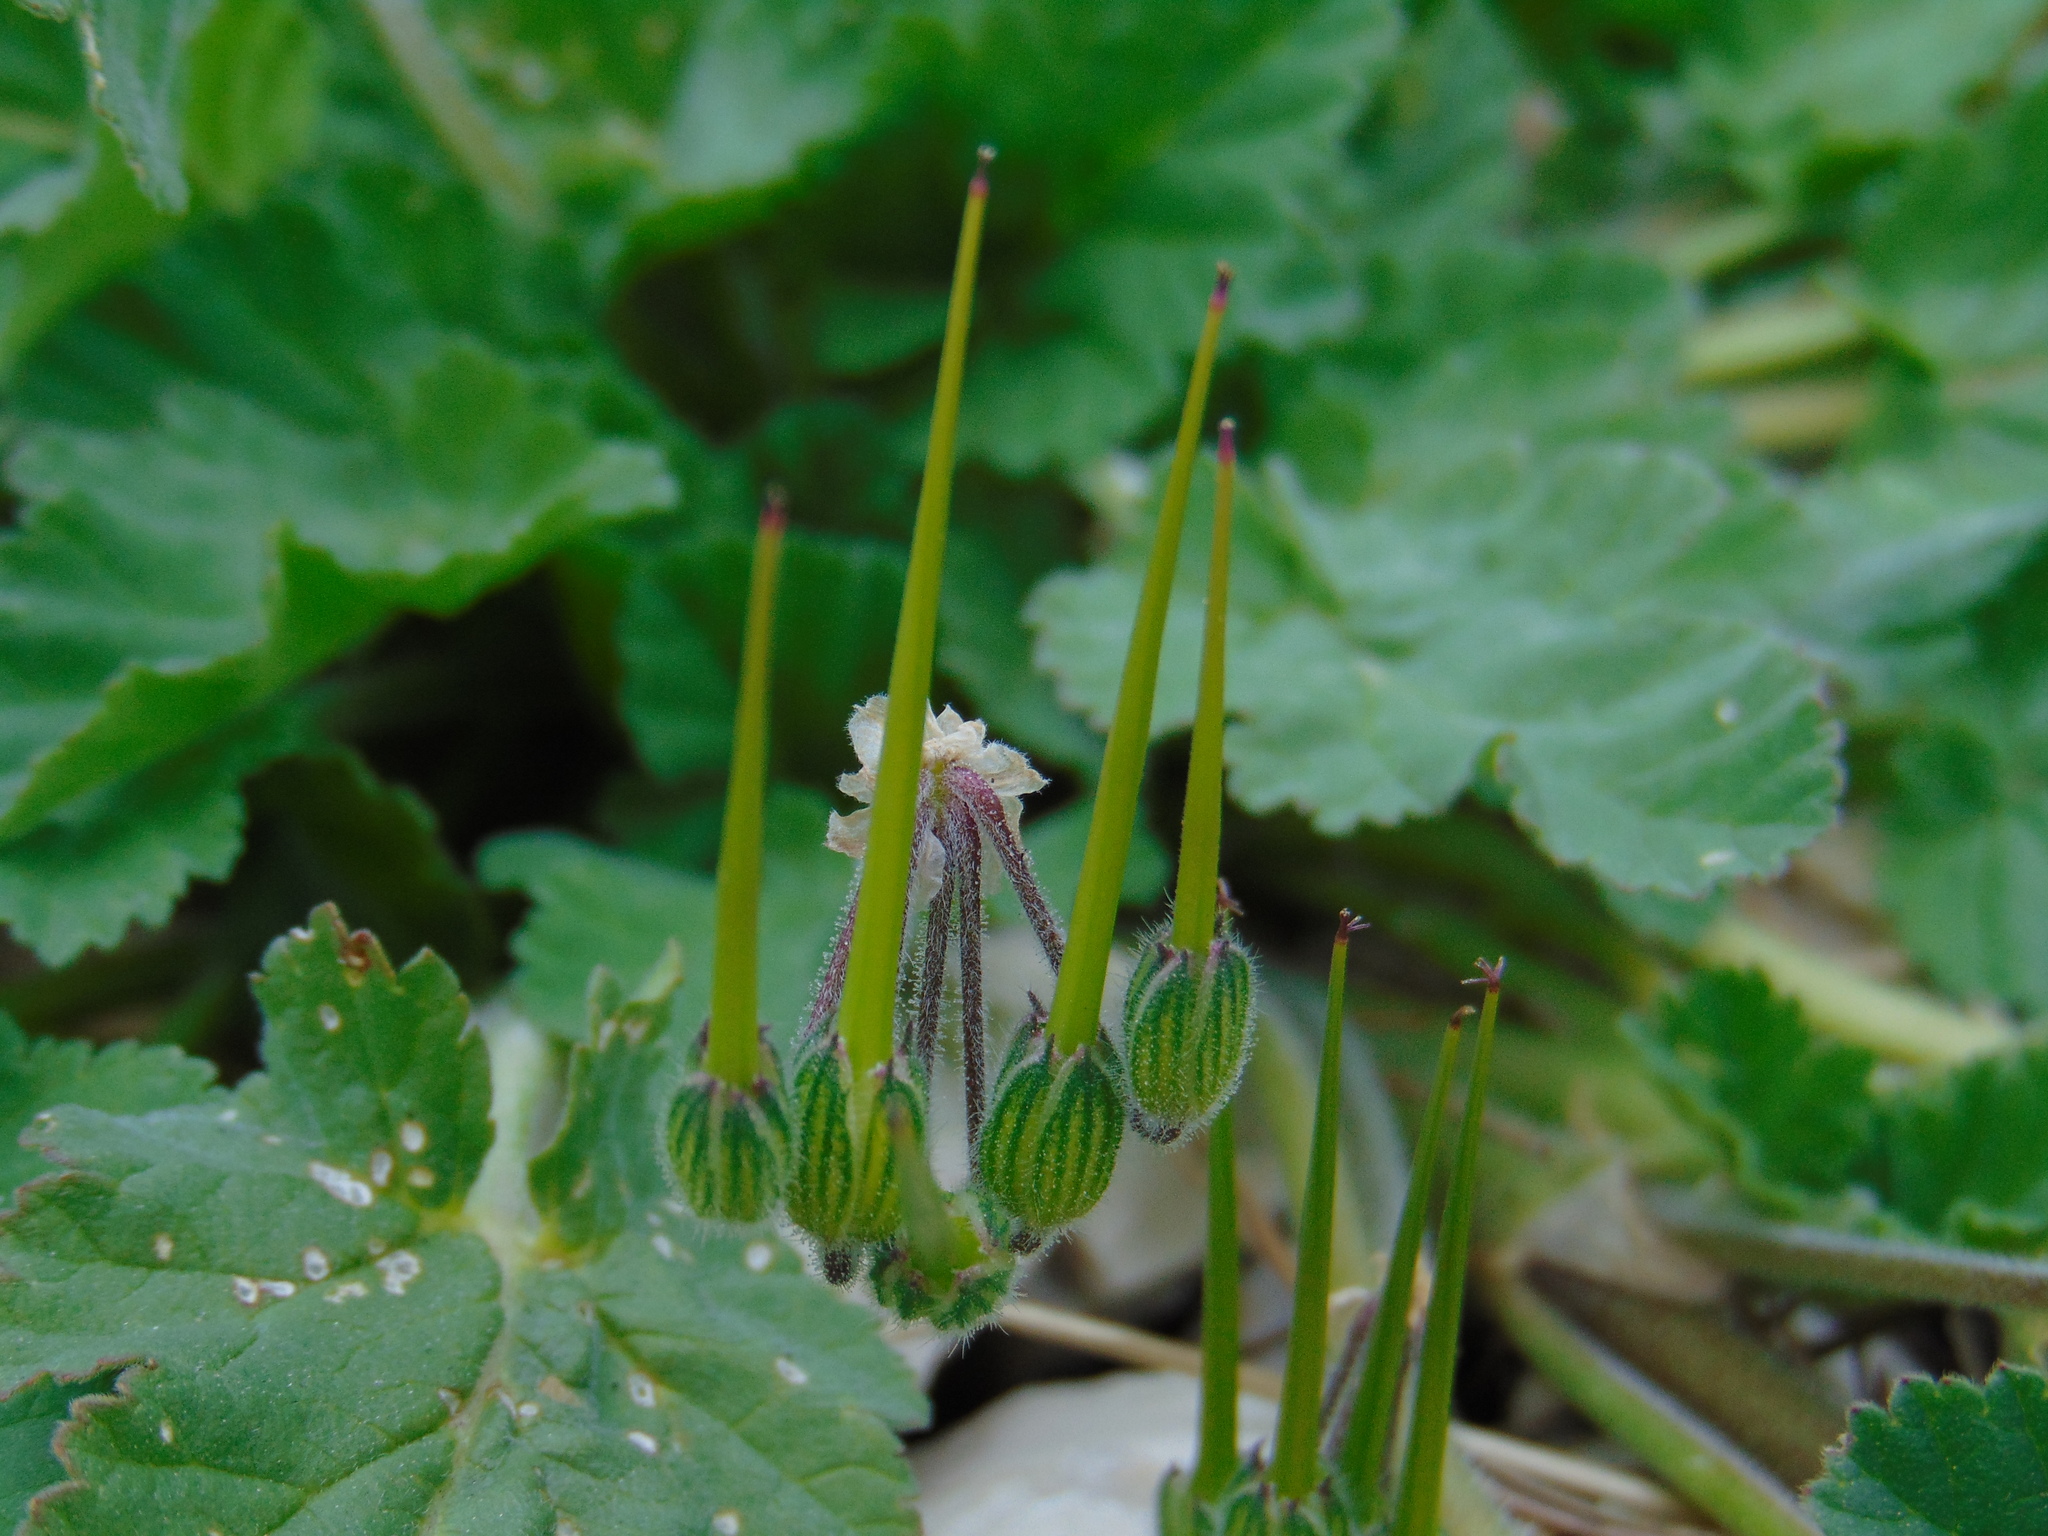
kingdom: Plantae
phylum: Tracheophyta
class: Magnoliopsida
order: Geraniales
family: Geraniaceae
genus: Erodium
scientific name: Erodium malacoides
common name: Soft stork's-bill
